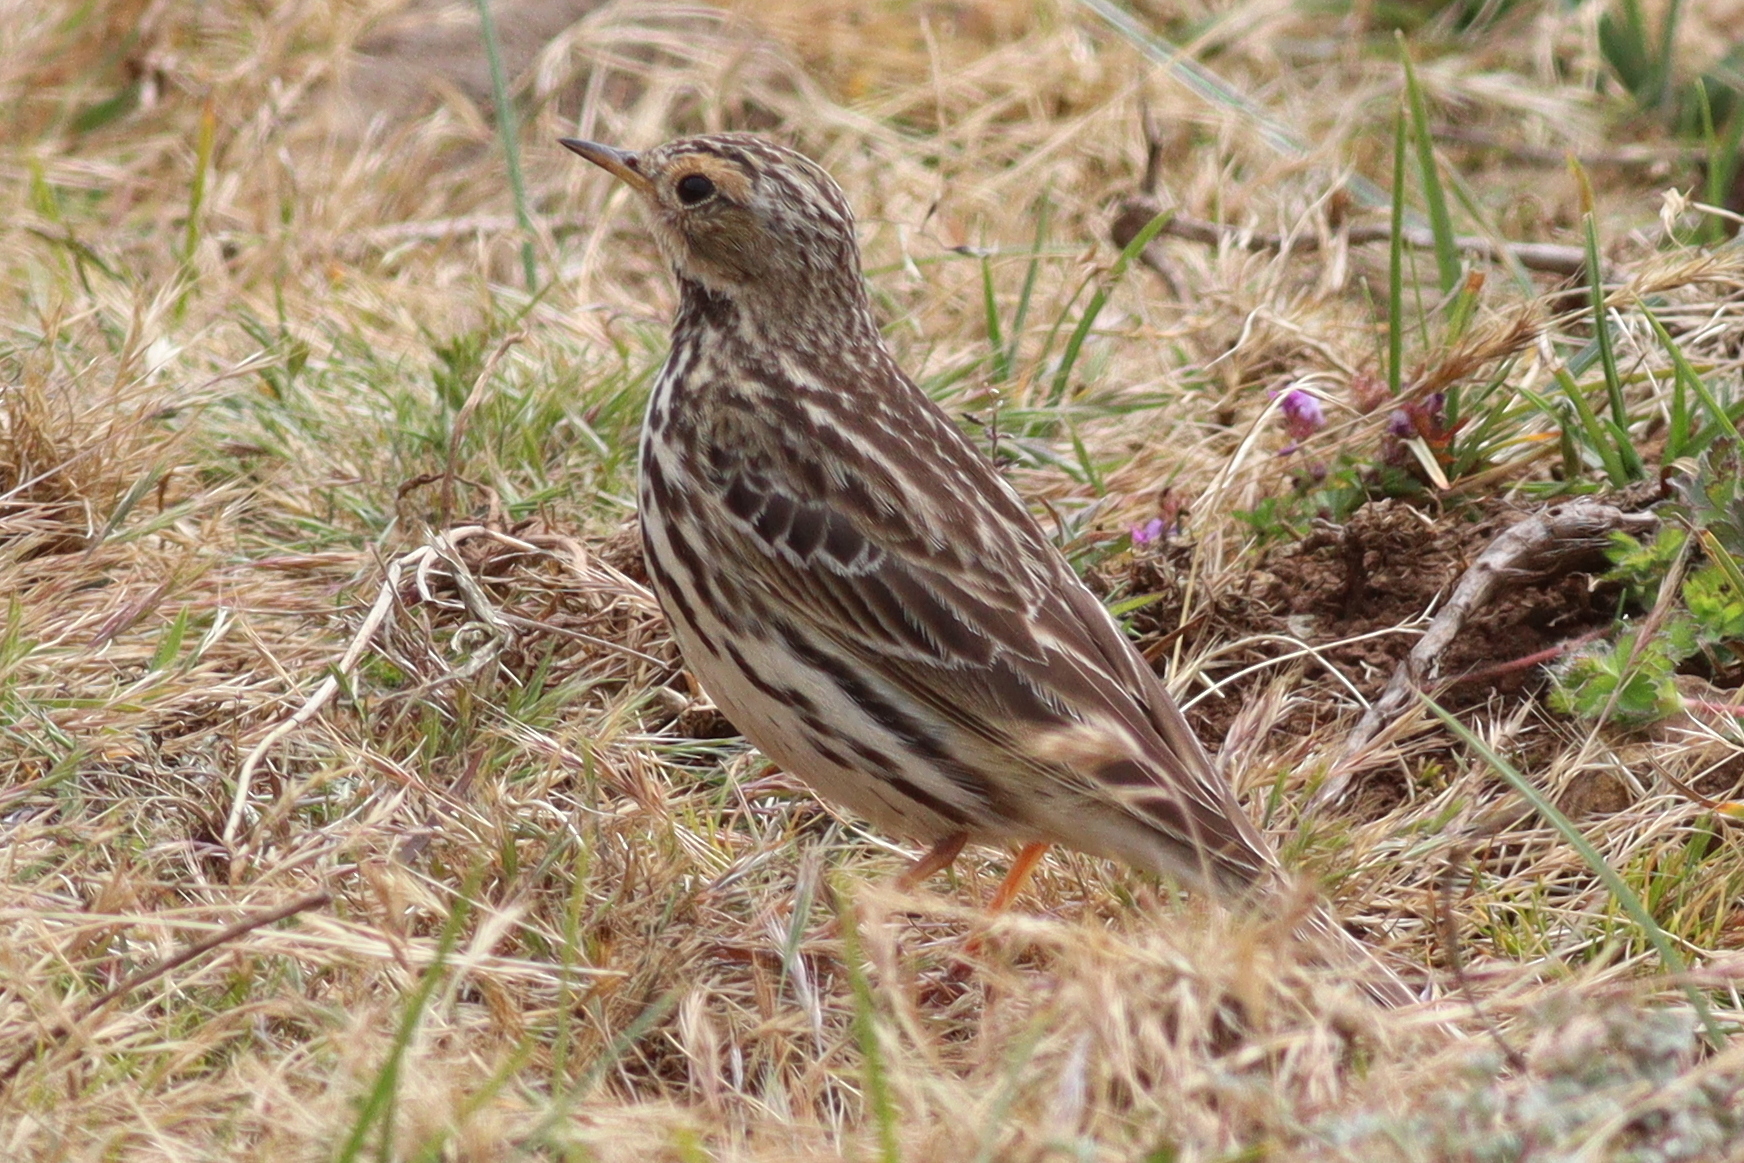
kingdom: Animalia
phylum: Chordata
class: Aves
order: Passeriformes
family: Motacillidae
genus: Anthus
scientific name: Anthus cervinus
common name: Red-throated pipit
